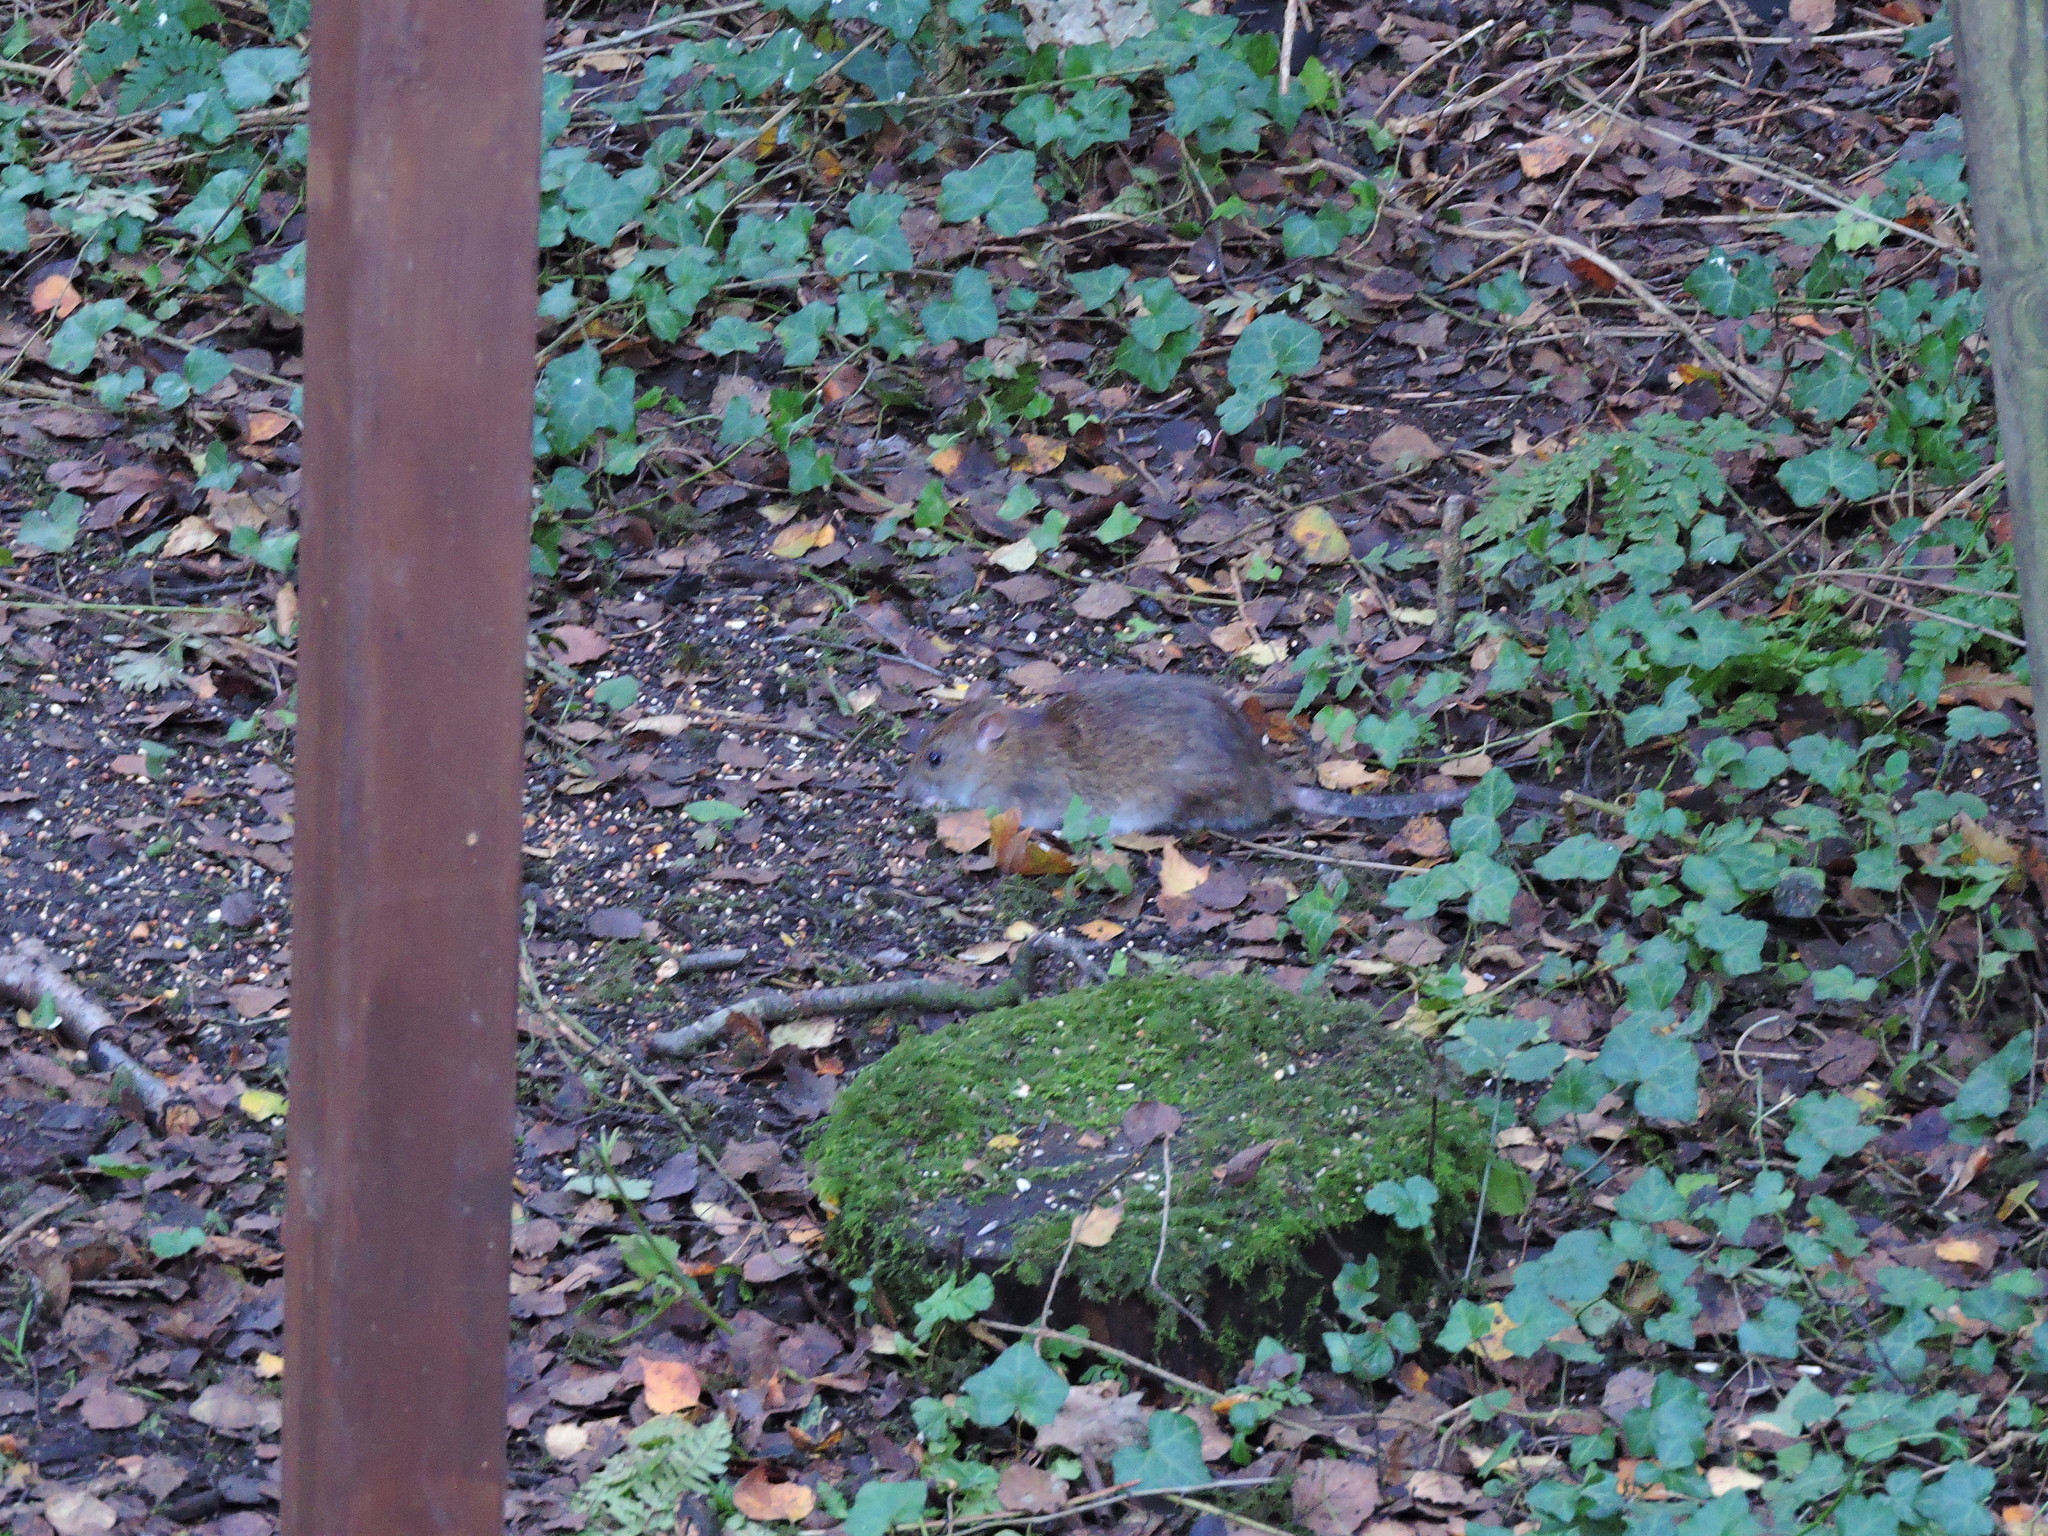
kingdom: Animalia
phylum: Chordata
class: Mammalia
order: Rodentia
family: Muridae
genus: Rattus
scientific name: Rattus norvegicus
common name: Brown rat
